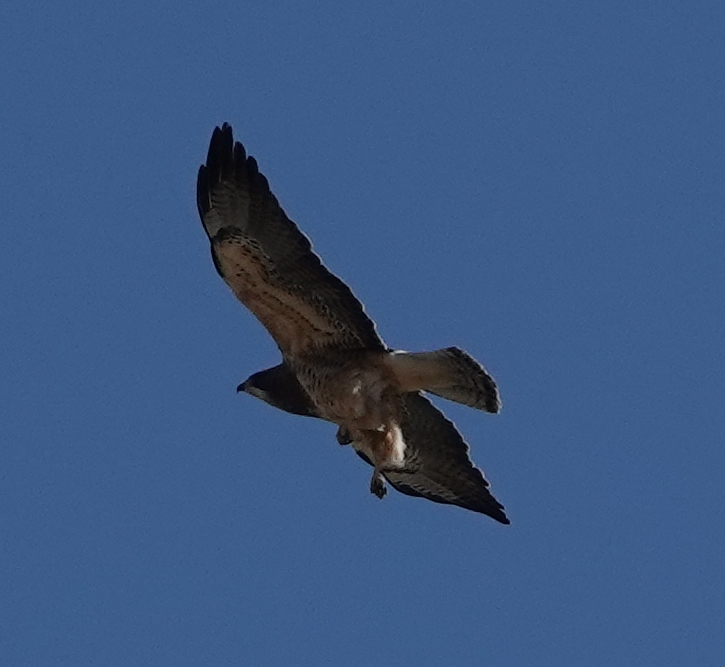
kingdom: Animalia
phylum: Chordata
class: Aves
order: Accipitriformes
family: Accipitridae
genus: Buteo
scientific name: Buteo swainsoni
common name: Swainson's hawk
